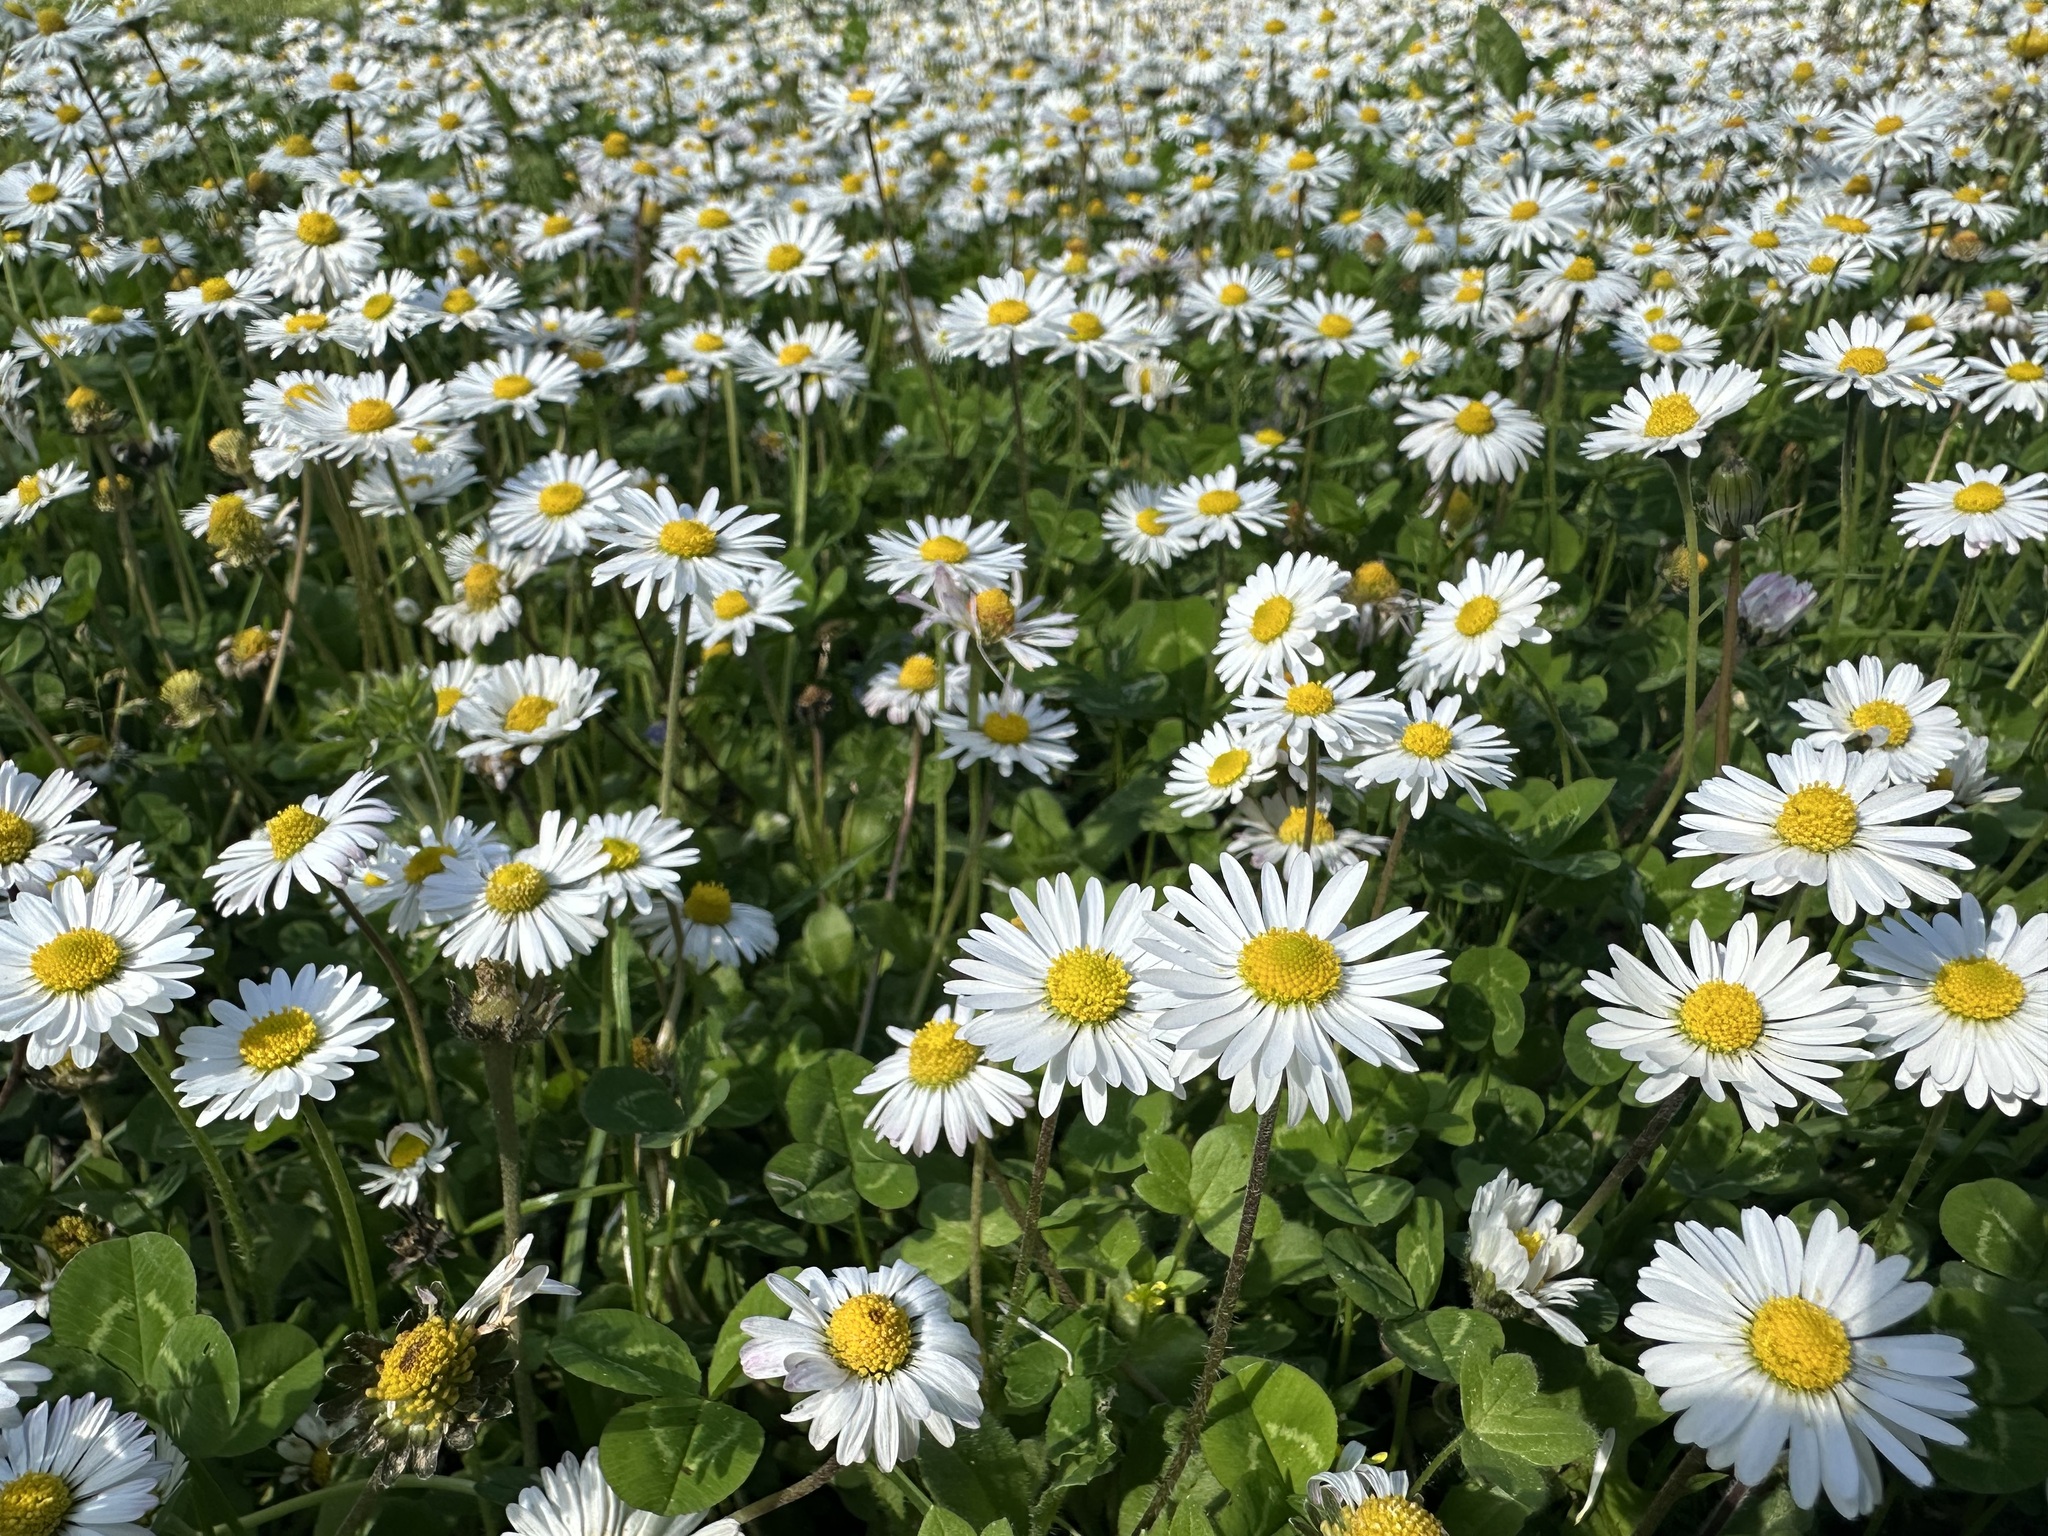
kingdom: Plantae
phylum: Tracheophyta
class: Magnoliopsida
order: Asterales
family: Asteraceae
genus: Bellis
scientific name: Bellis perennis
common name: Lawndaisy
